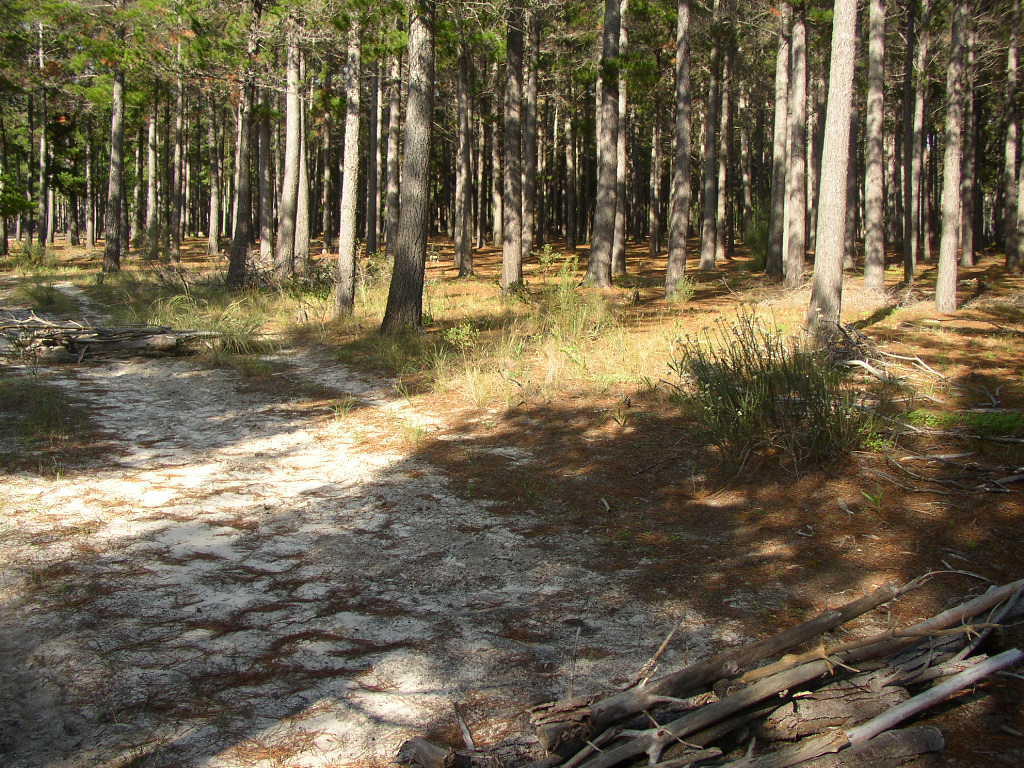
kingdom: Plantae
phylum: Tracheophyta
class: Magnoliopsida
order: Asterales
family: Asteraceae
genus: Metalasia
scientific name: Metalasia densa
